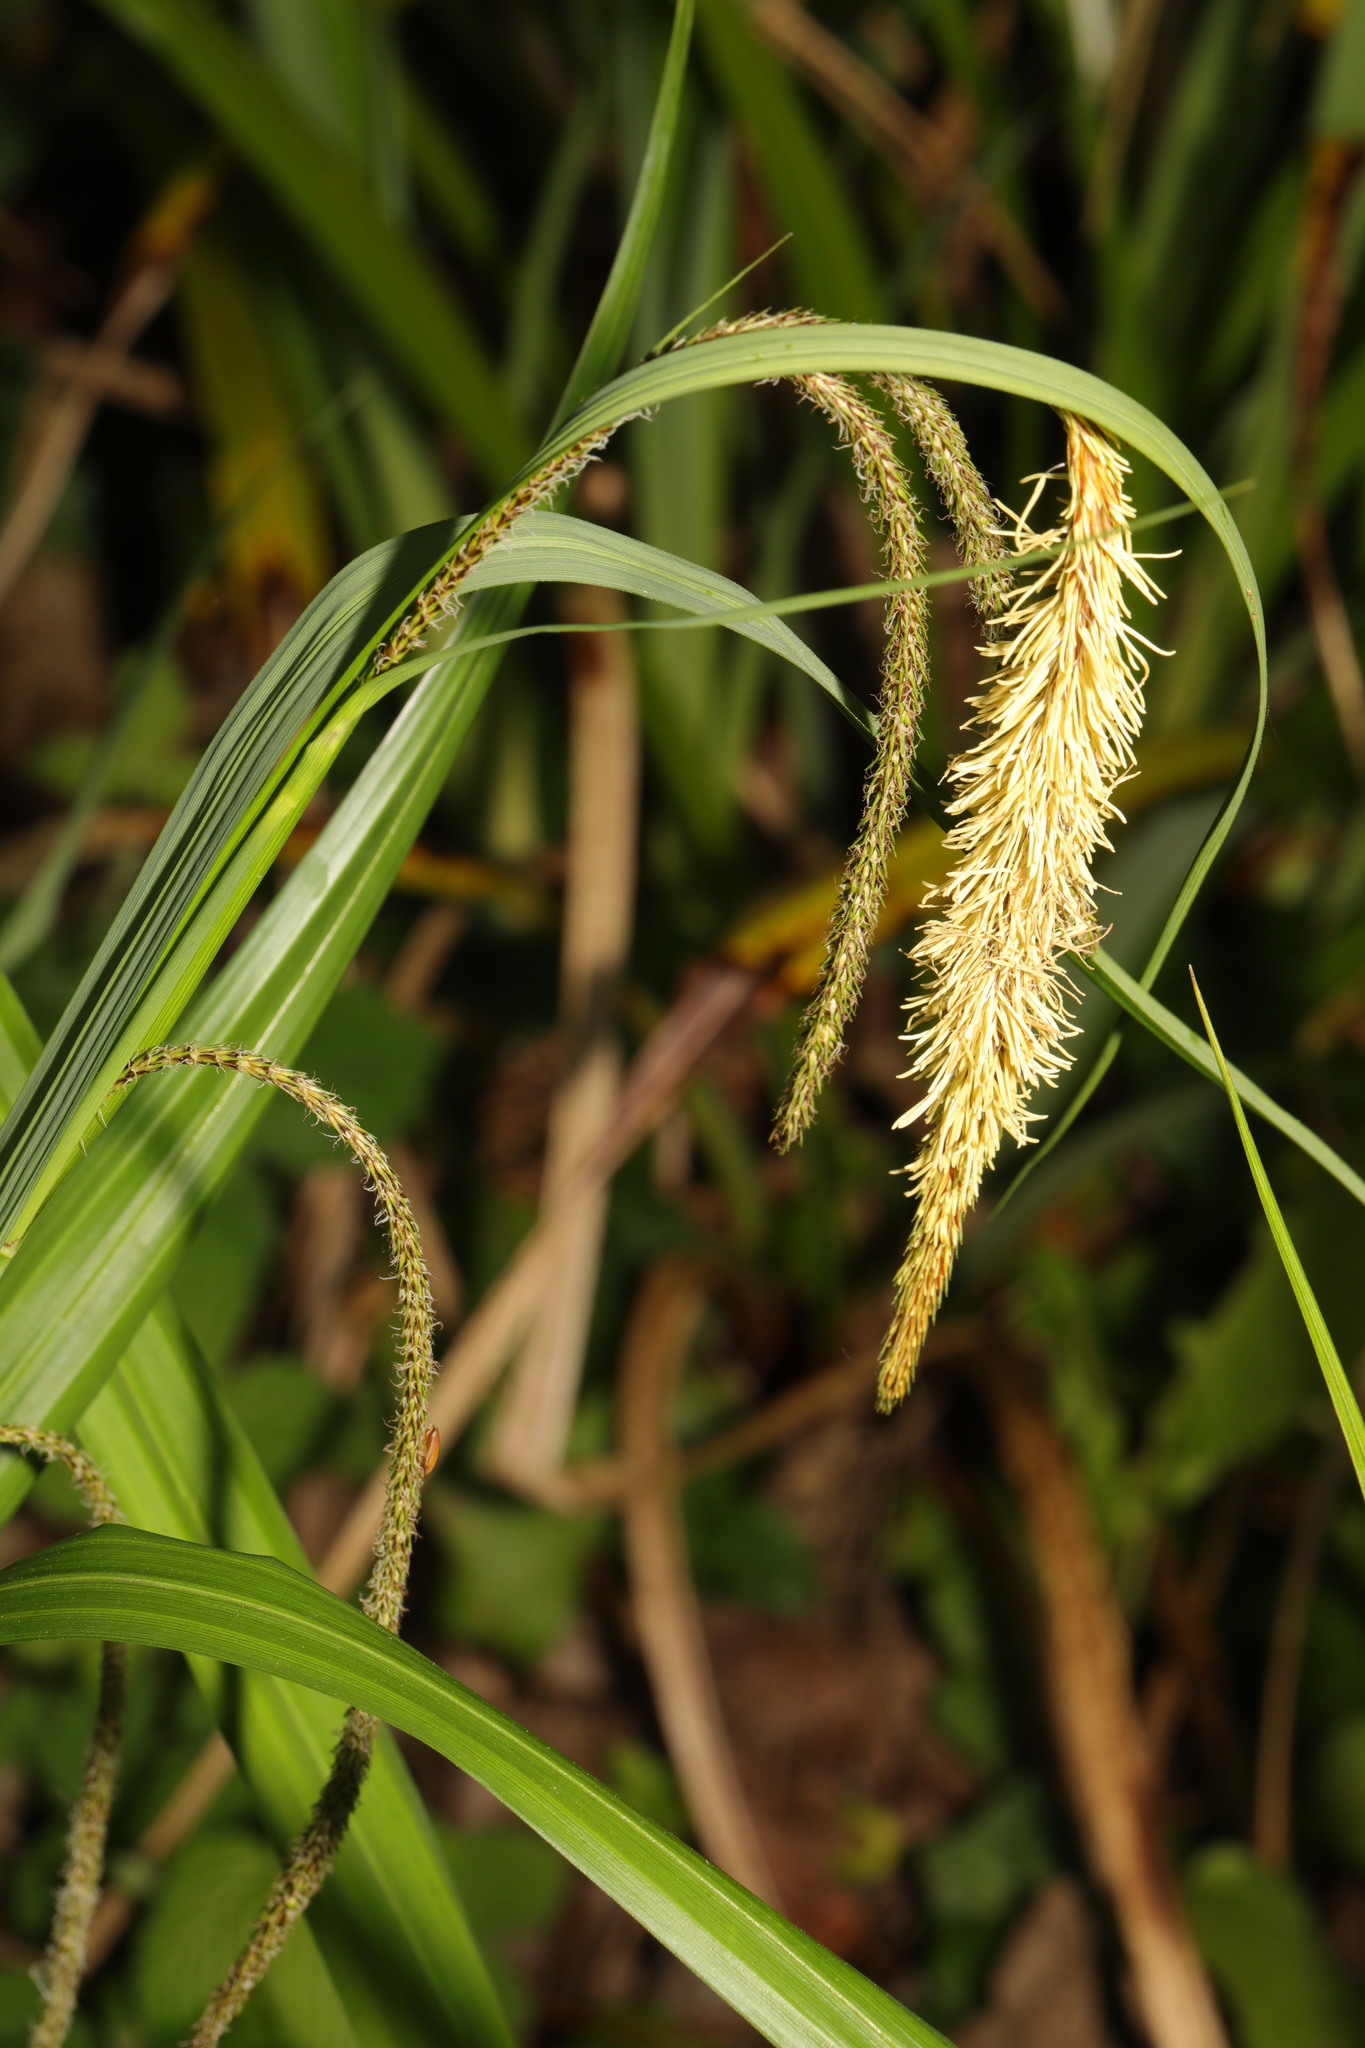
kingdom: Plantae
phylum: Tracheophyta
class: Liliopsida
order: Poales
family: Cyperaceae
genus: Carex
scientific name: Carex pendula
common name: Pendulous sedge
